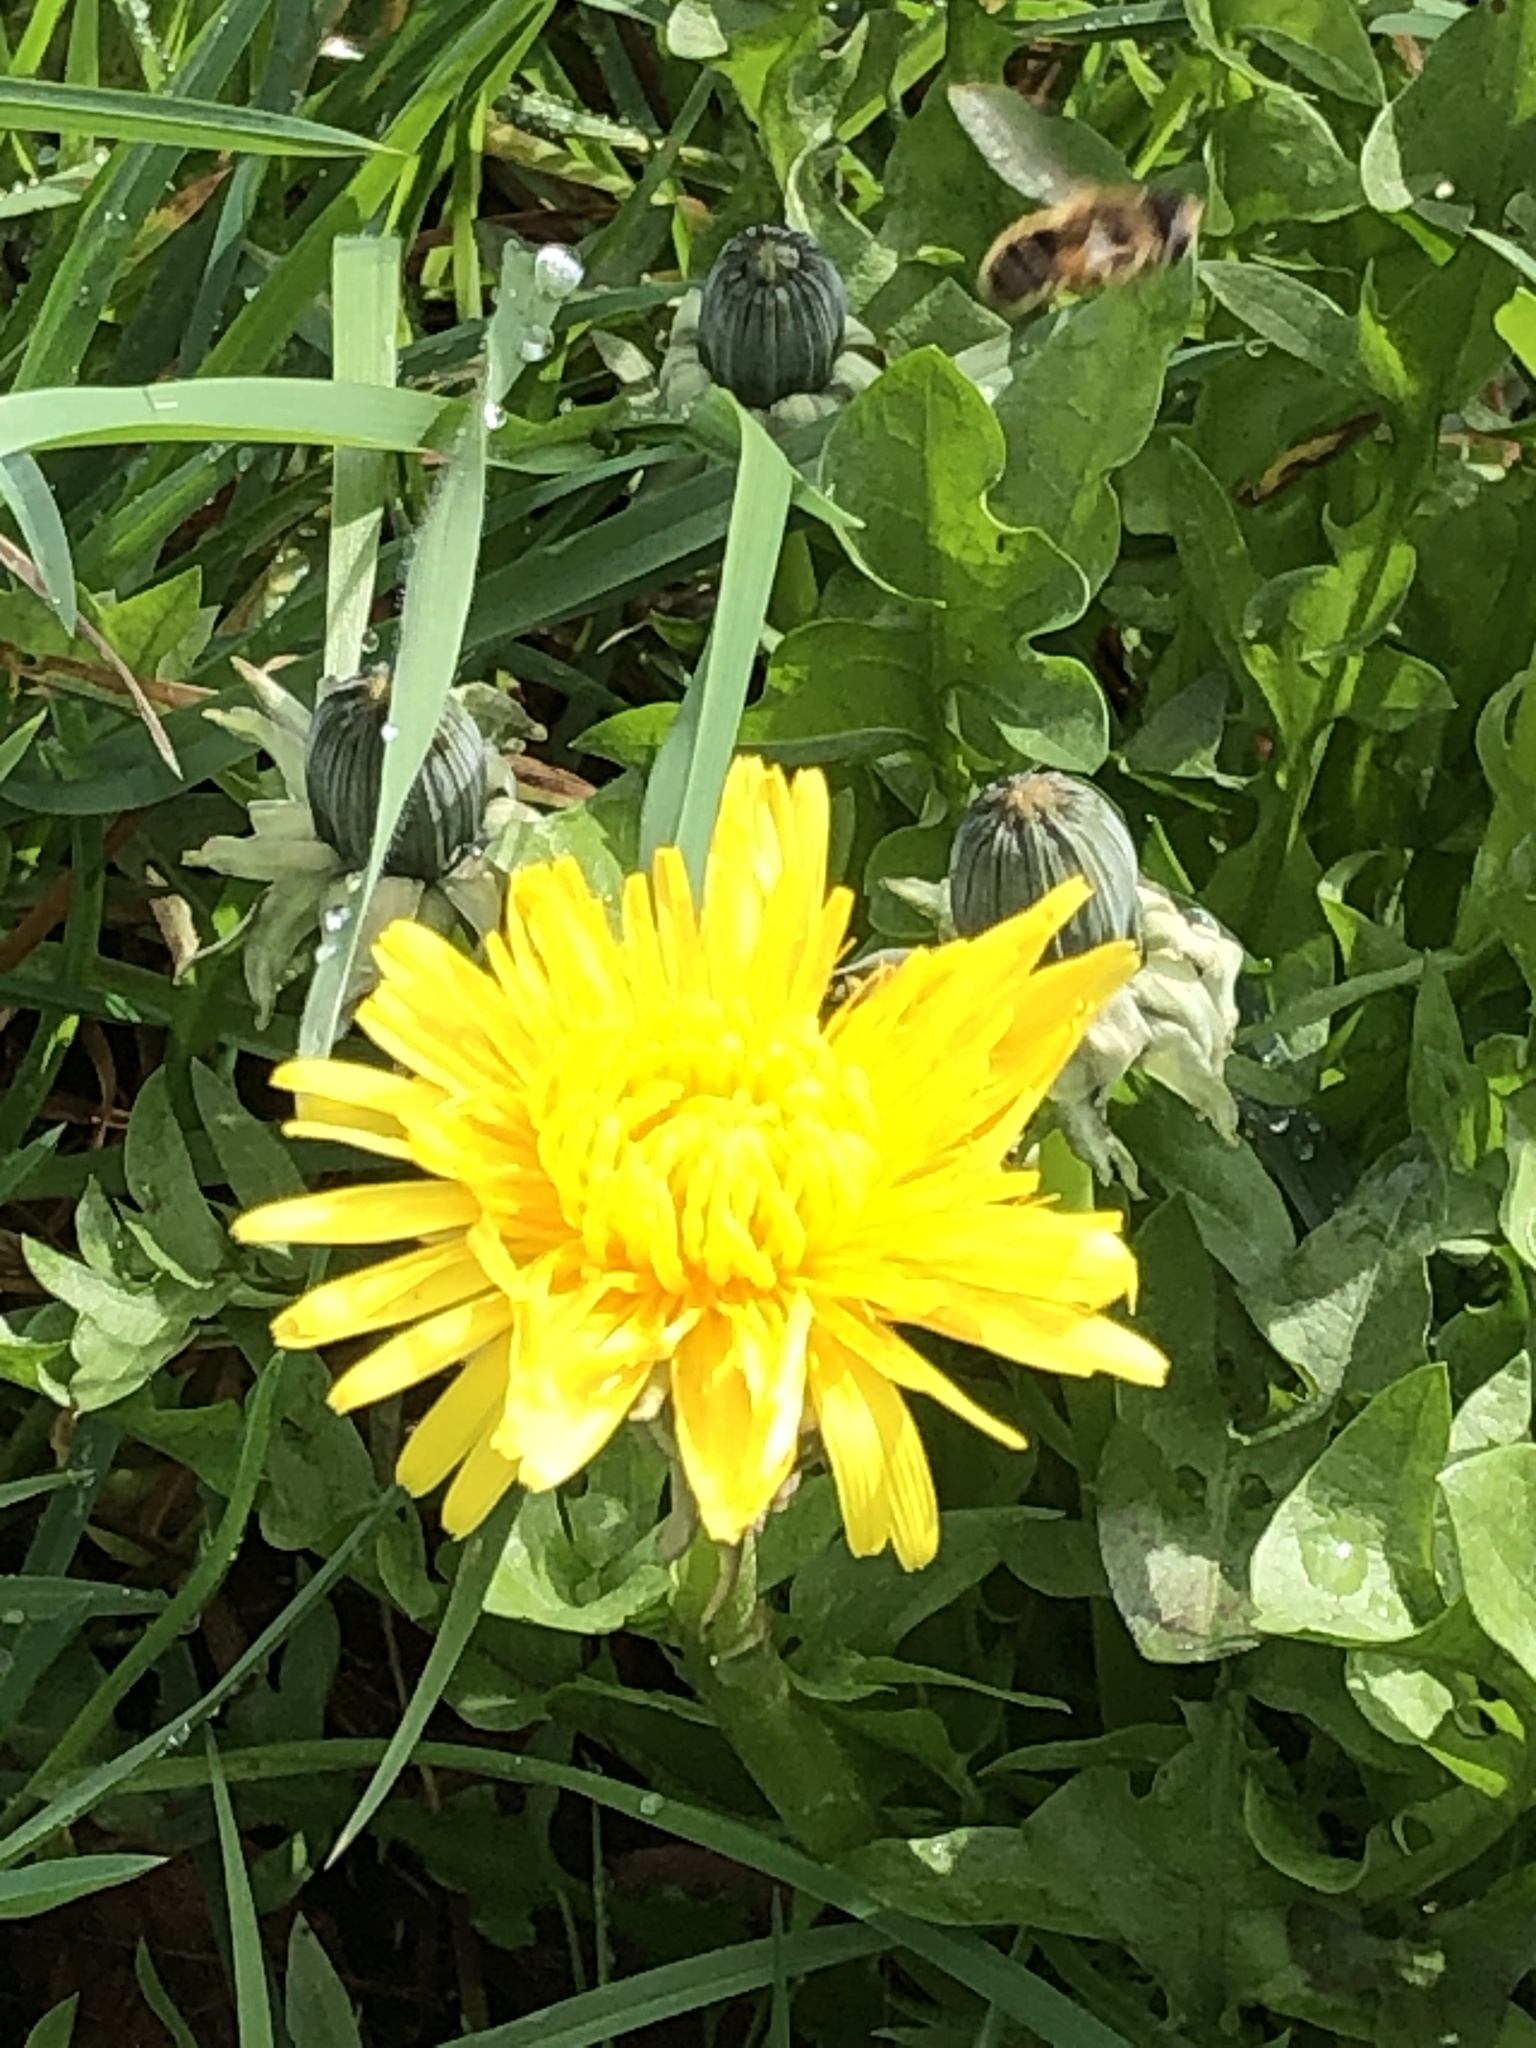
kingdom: Plantae
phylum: Tracheophyta
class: Magnoliopsida
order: Asterales
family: Asteraceae
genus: Taraxacum
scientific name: Taraxacum officinale
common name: Common dandelion
